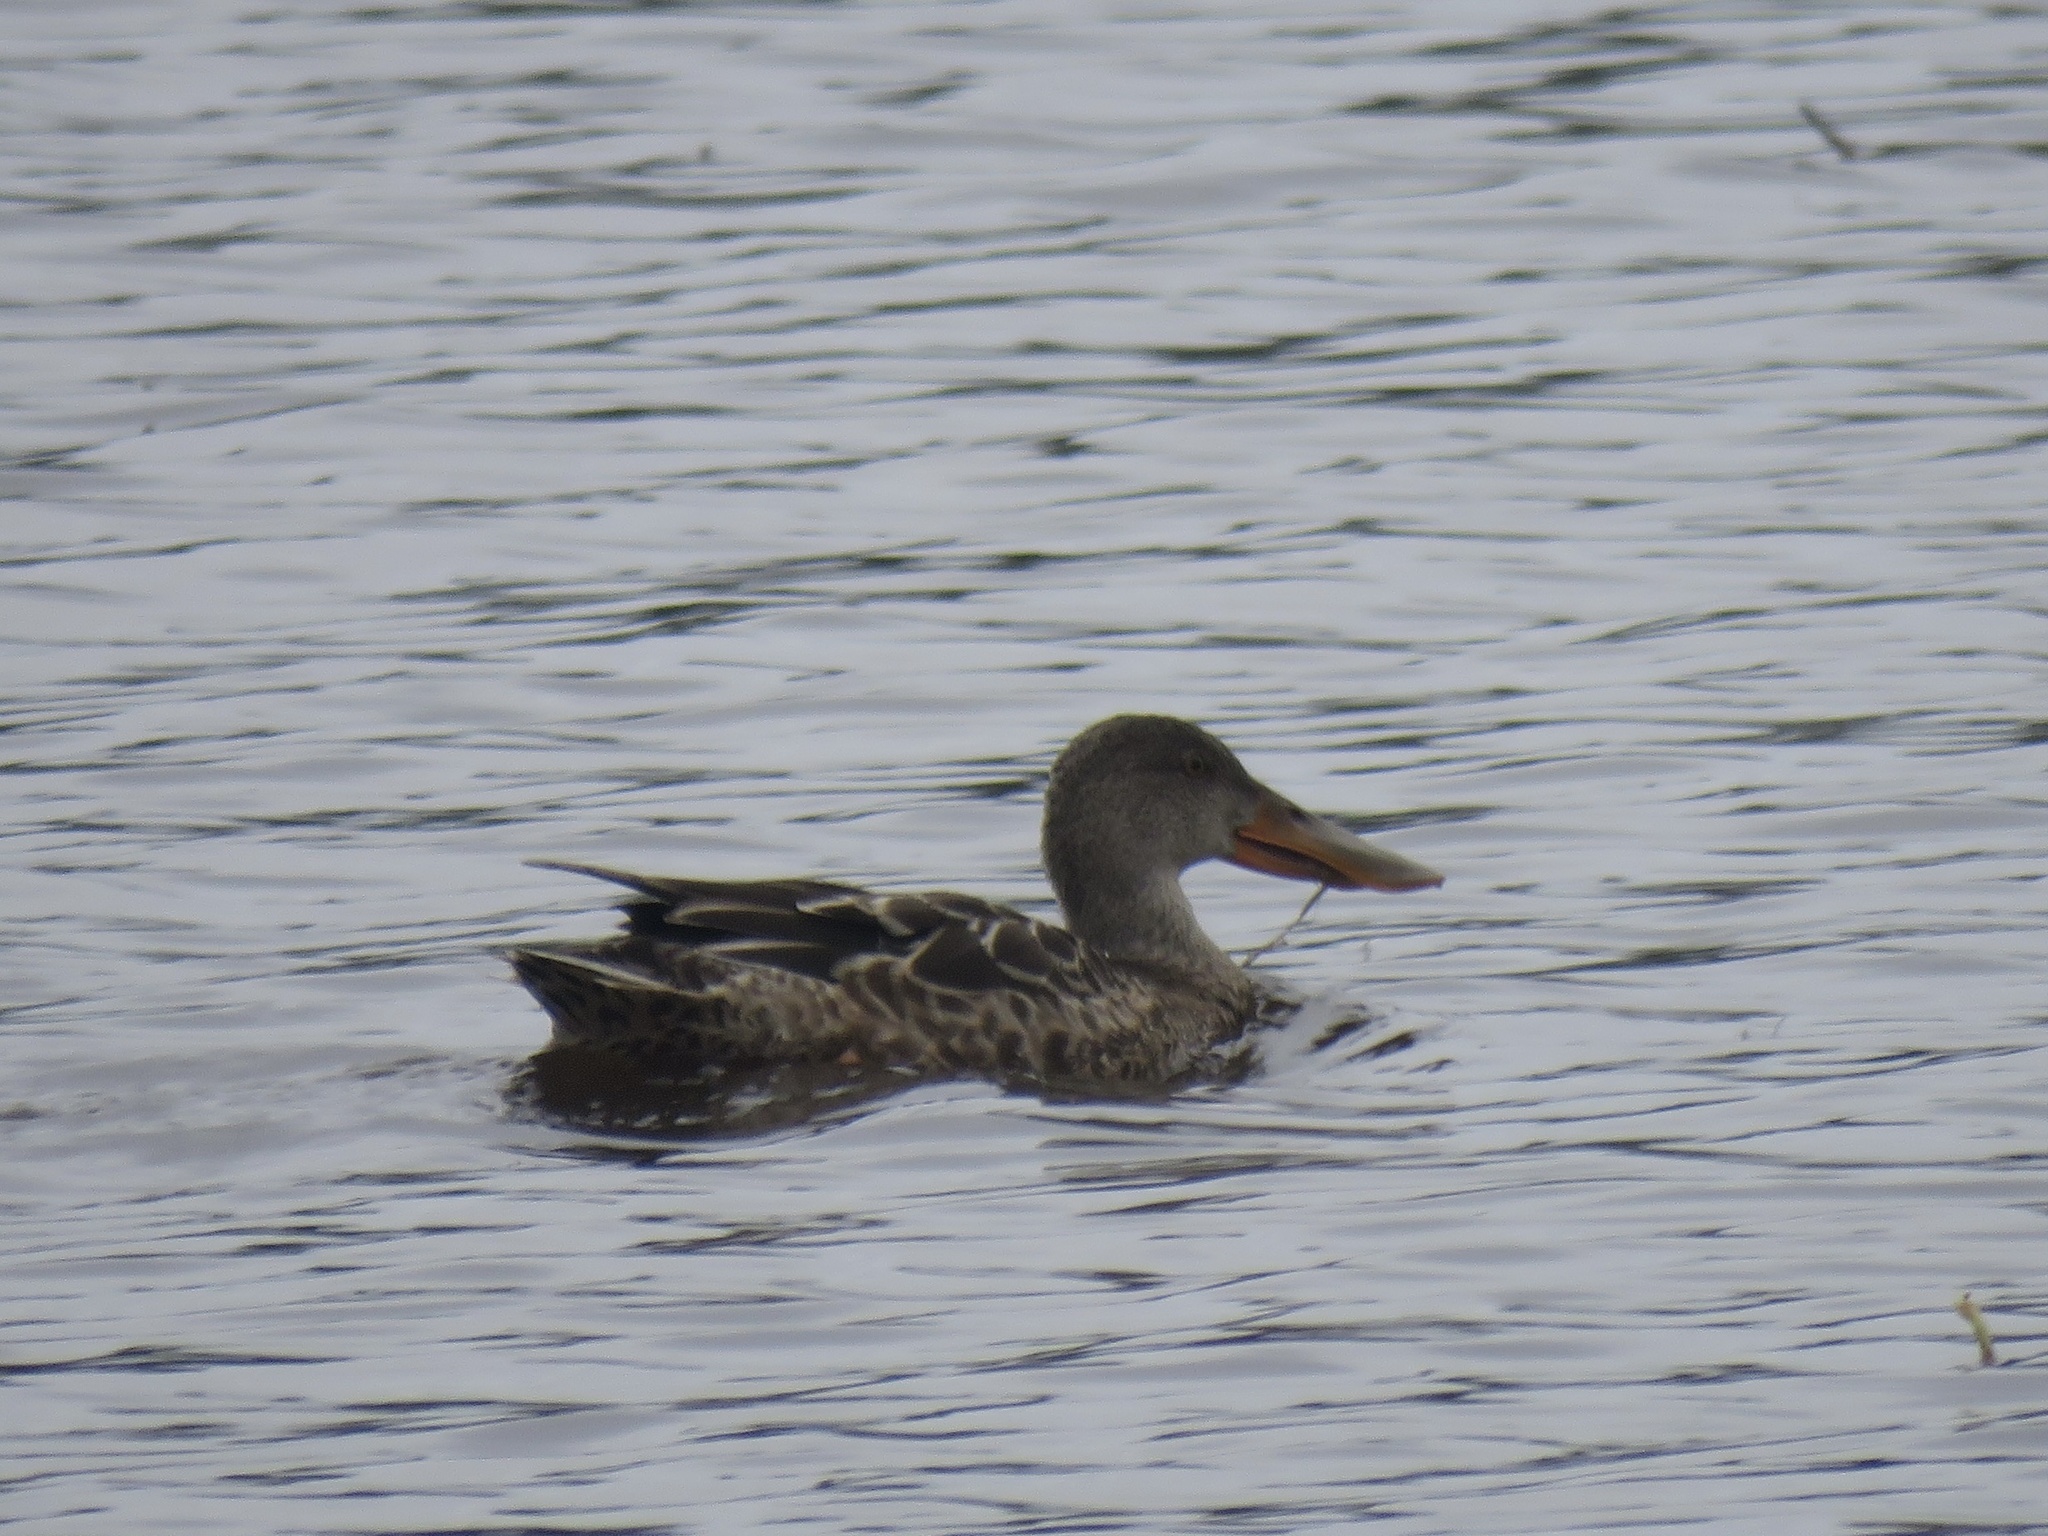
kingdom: Animalia
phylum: Chordata
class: Aves
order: Anseriformes
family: Anatidae
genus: Spatula
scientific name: Spatula clypeata
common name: Northern shoveler
